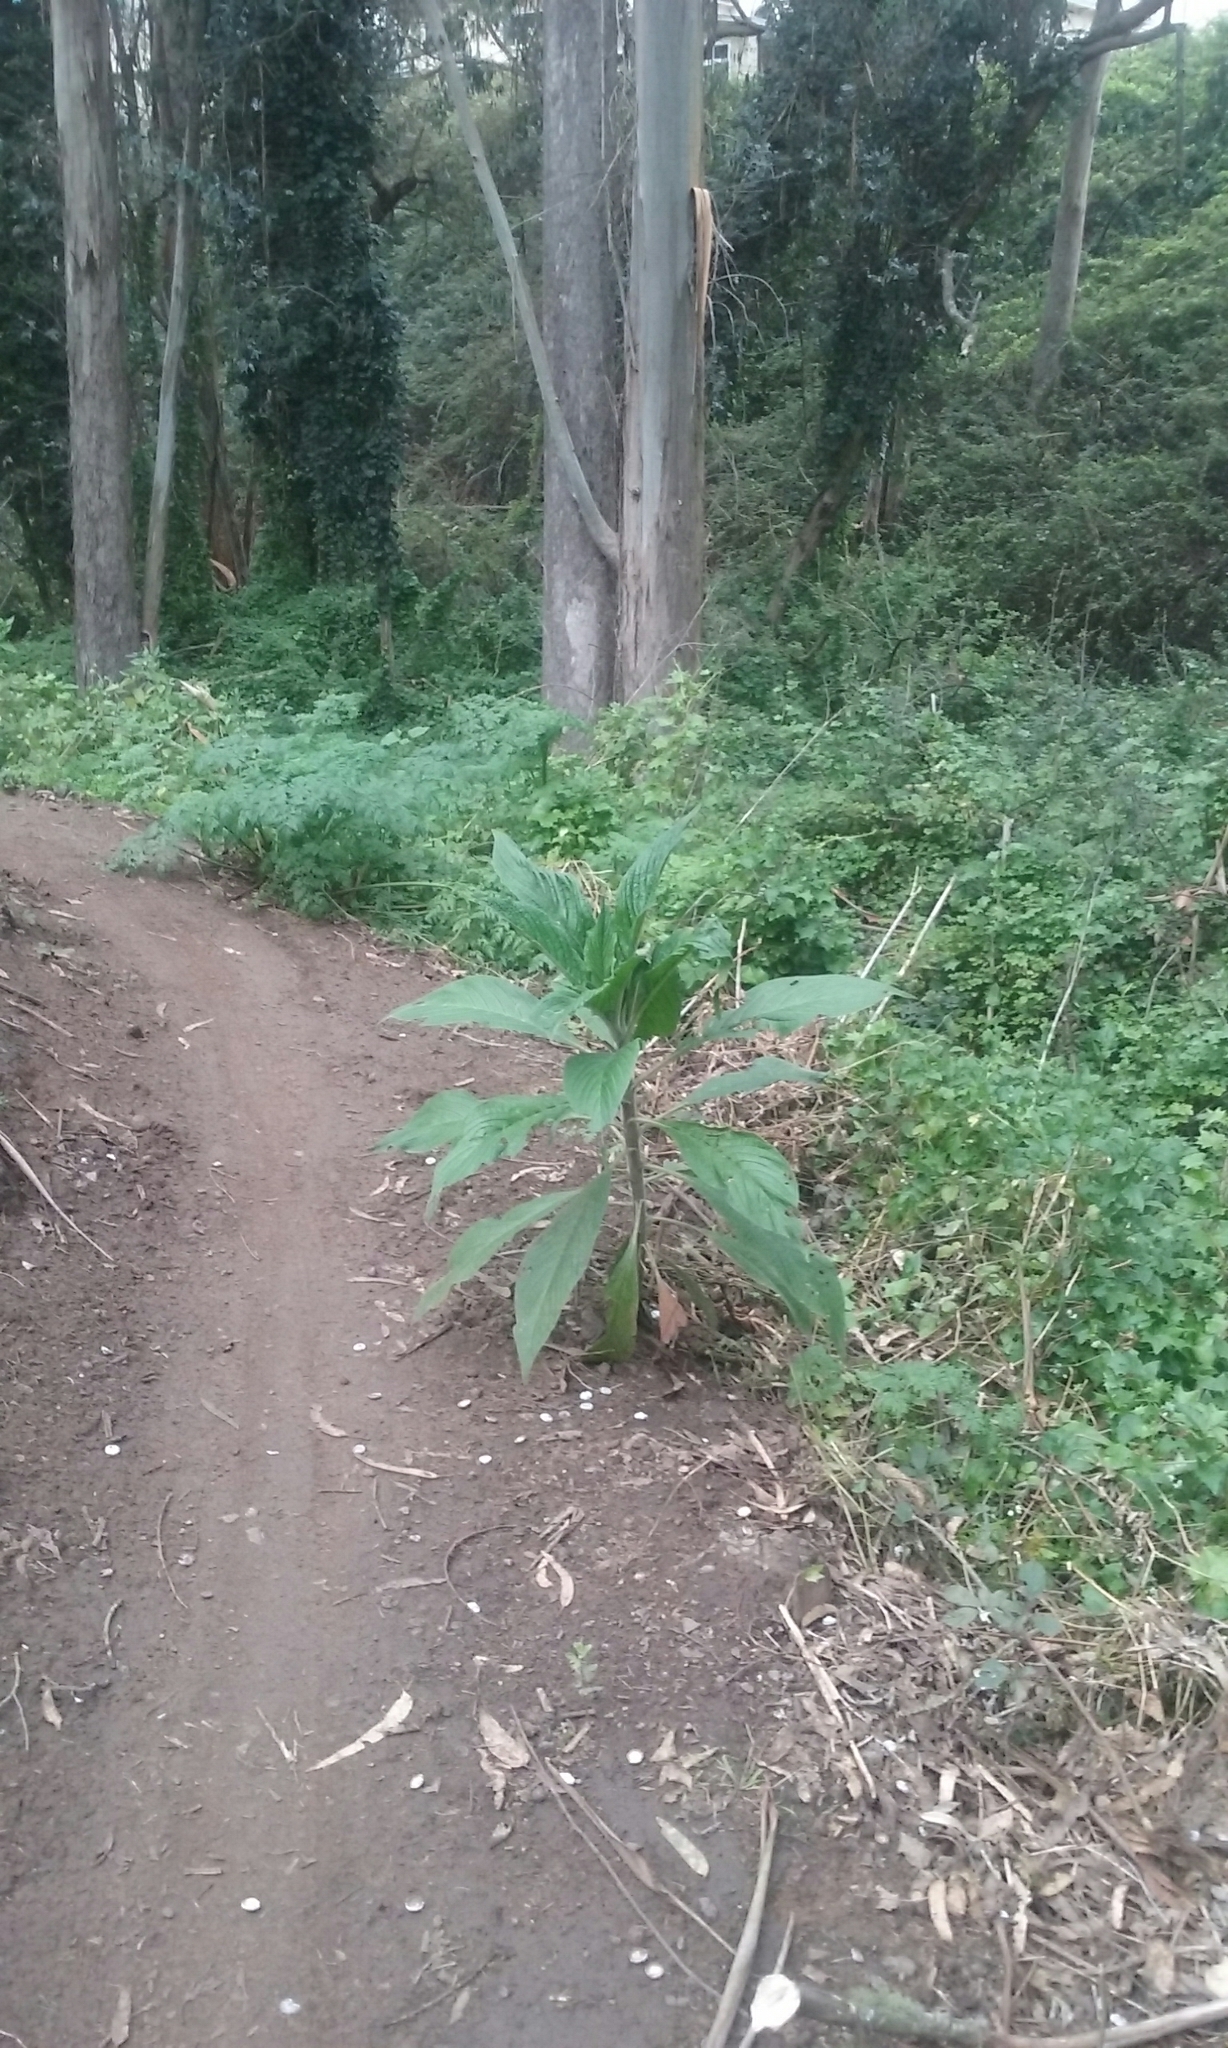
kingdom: Plantae
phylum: Tracheophyta
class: Magnoliopsida
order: Boraginales
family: Boraginaceae
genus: Echium
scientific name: Echium pininana
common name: Giant viper's-bugloss
